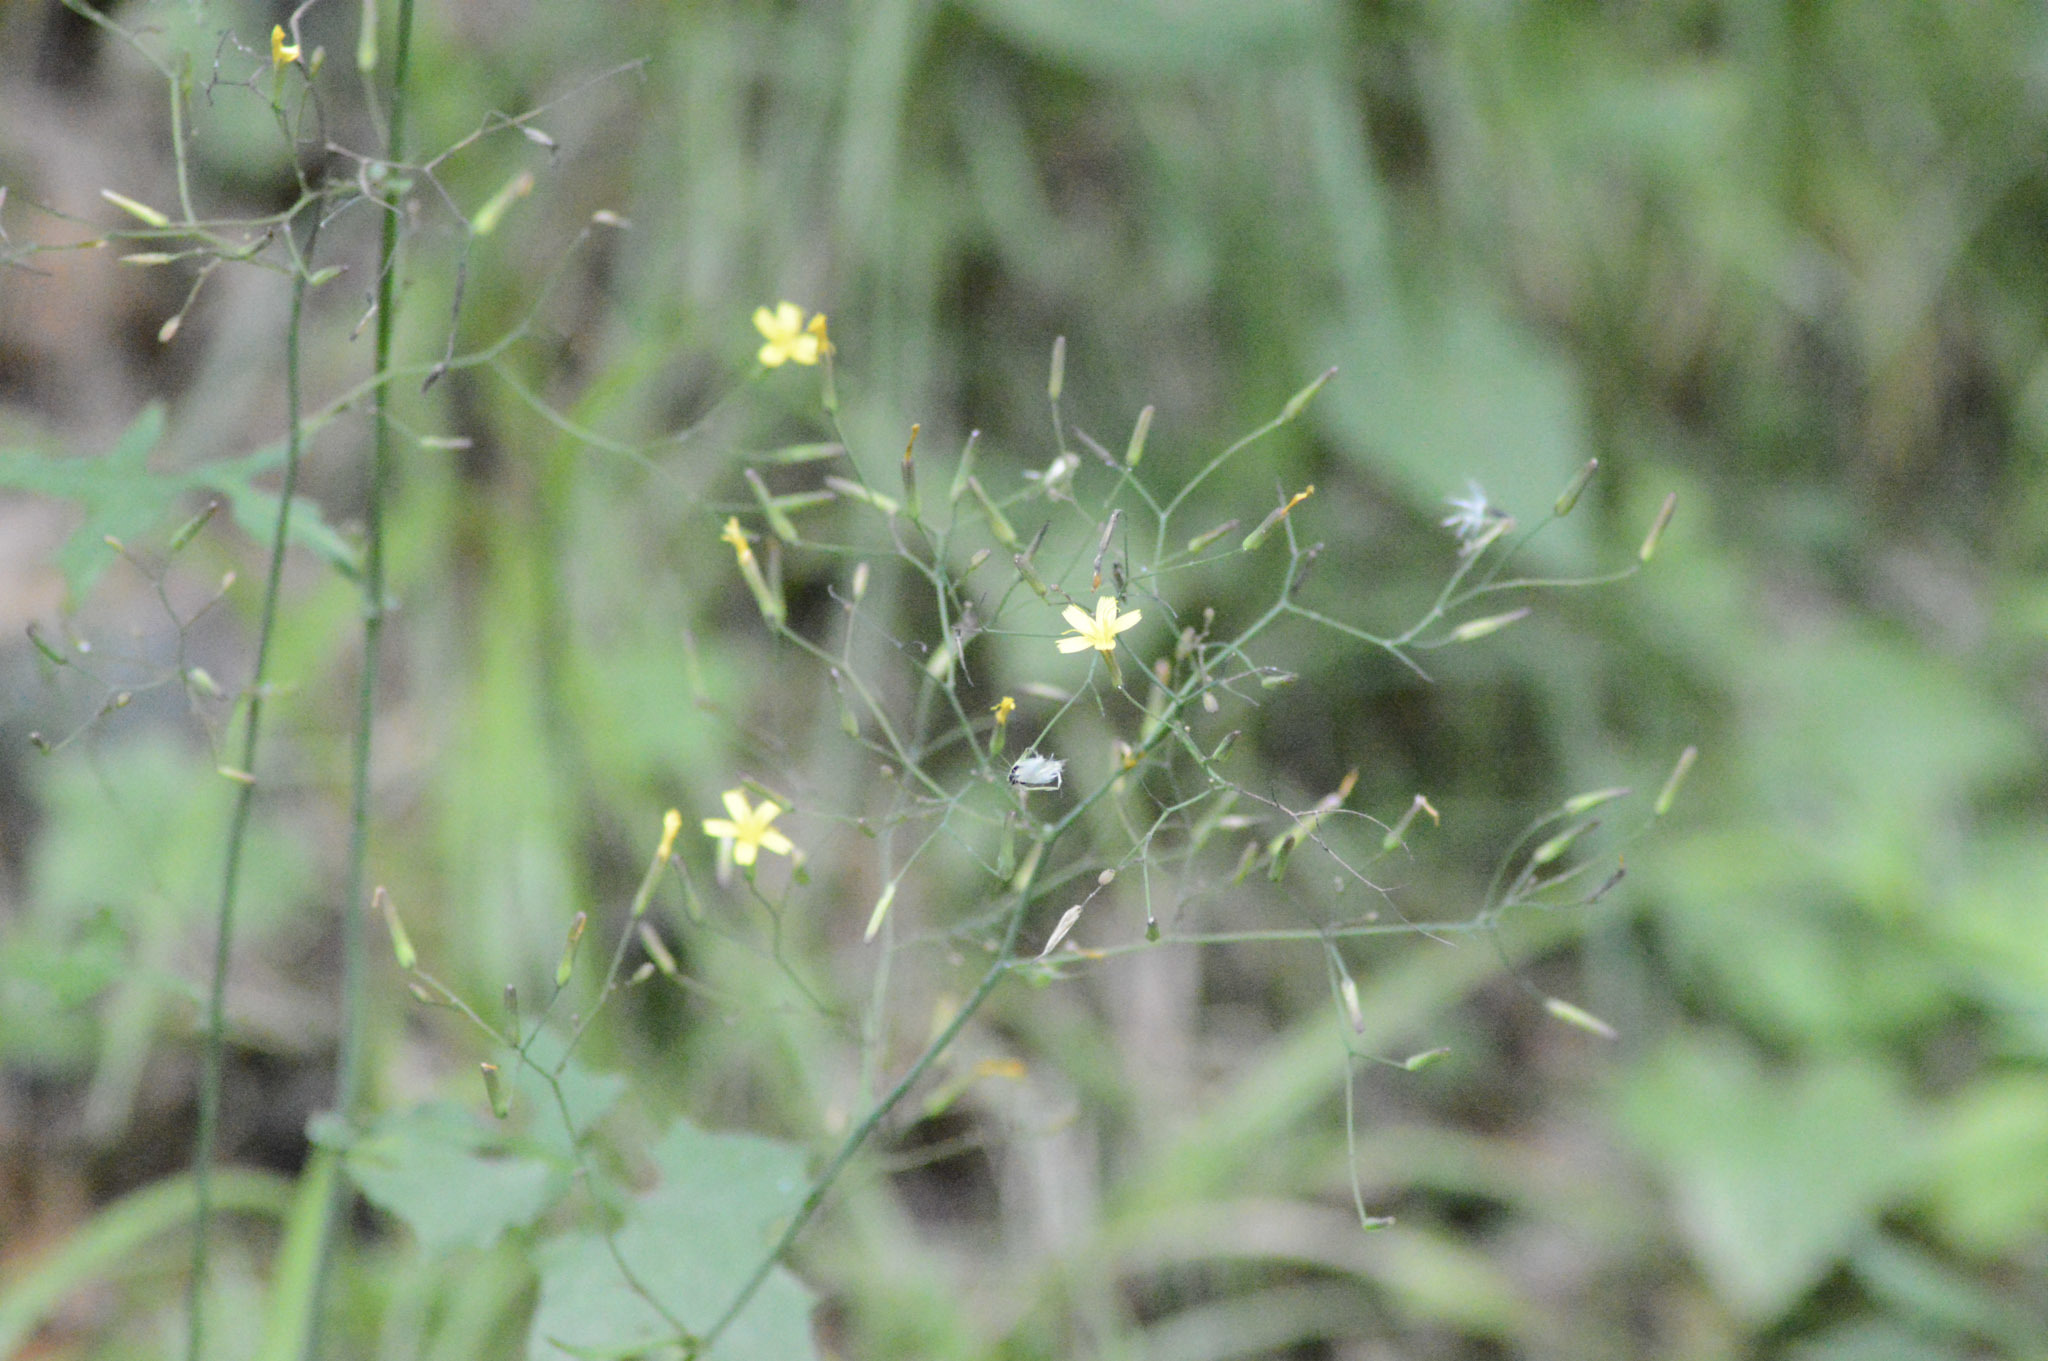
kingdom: Plantae
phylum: Tracheophyta
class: Magnoliopsida
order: Asterales
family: Asteraceae
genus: Mycelis
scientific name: Mycelis muralis
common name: Wall lettuce
